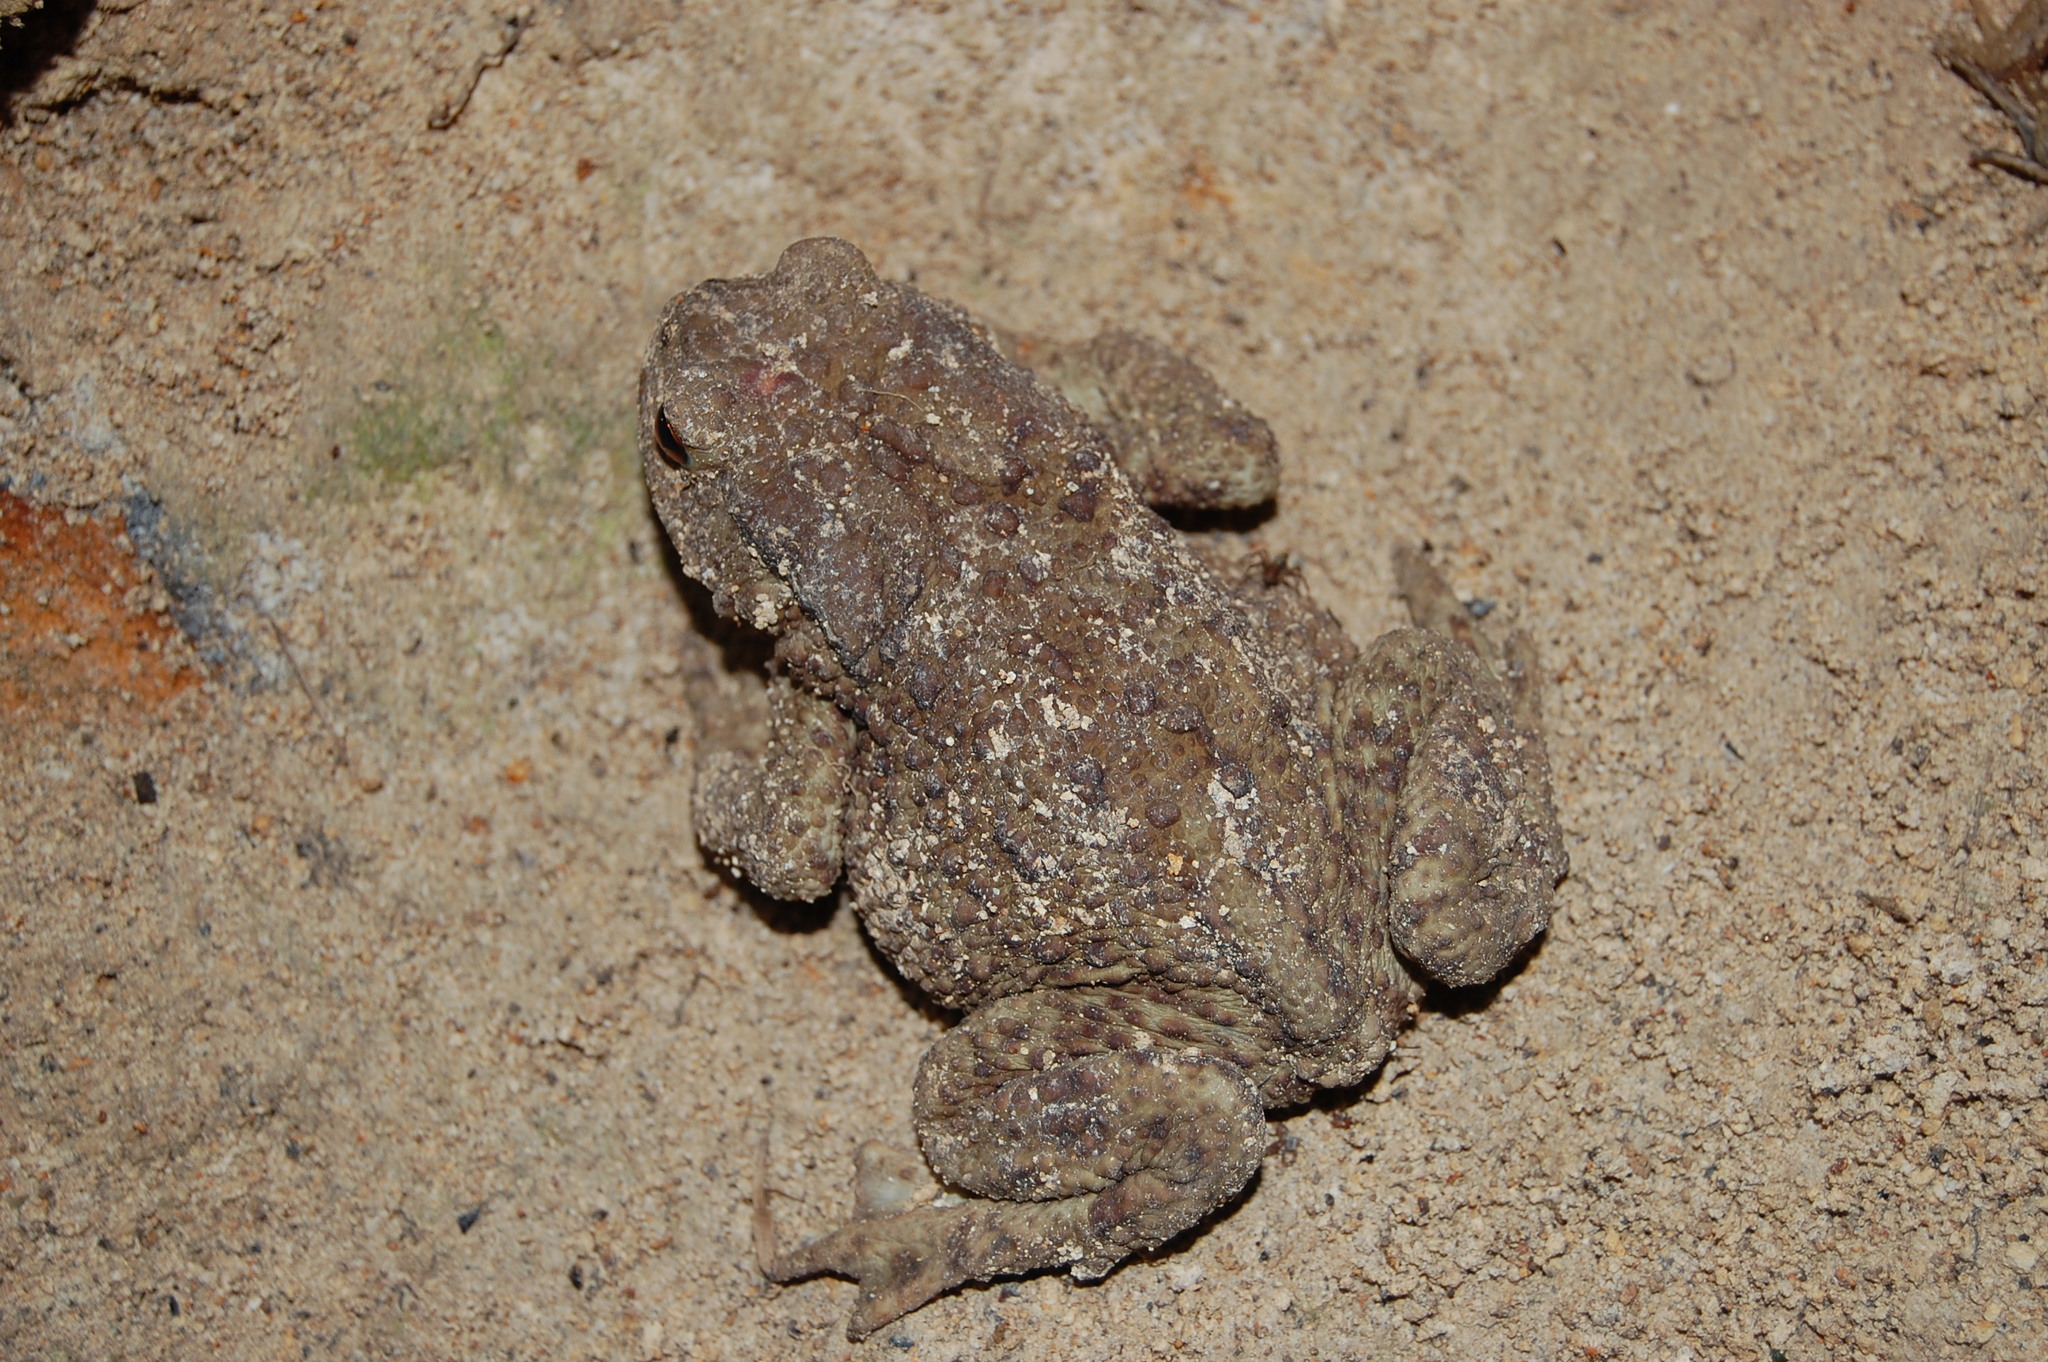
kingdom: Animalia
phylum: Chordata
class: Amphibia
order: Anura
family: Bufonidae
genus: Bufo
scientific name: Bufo bufo
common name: Common toad
